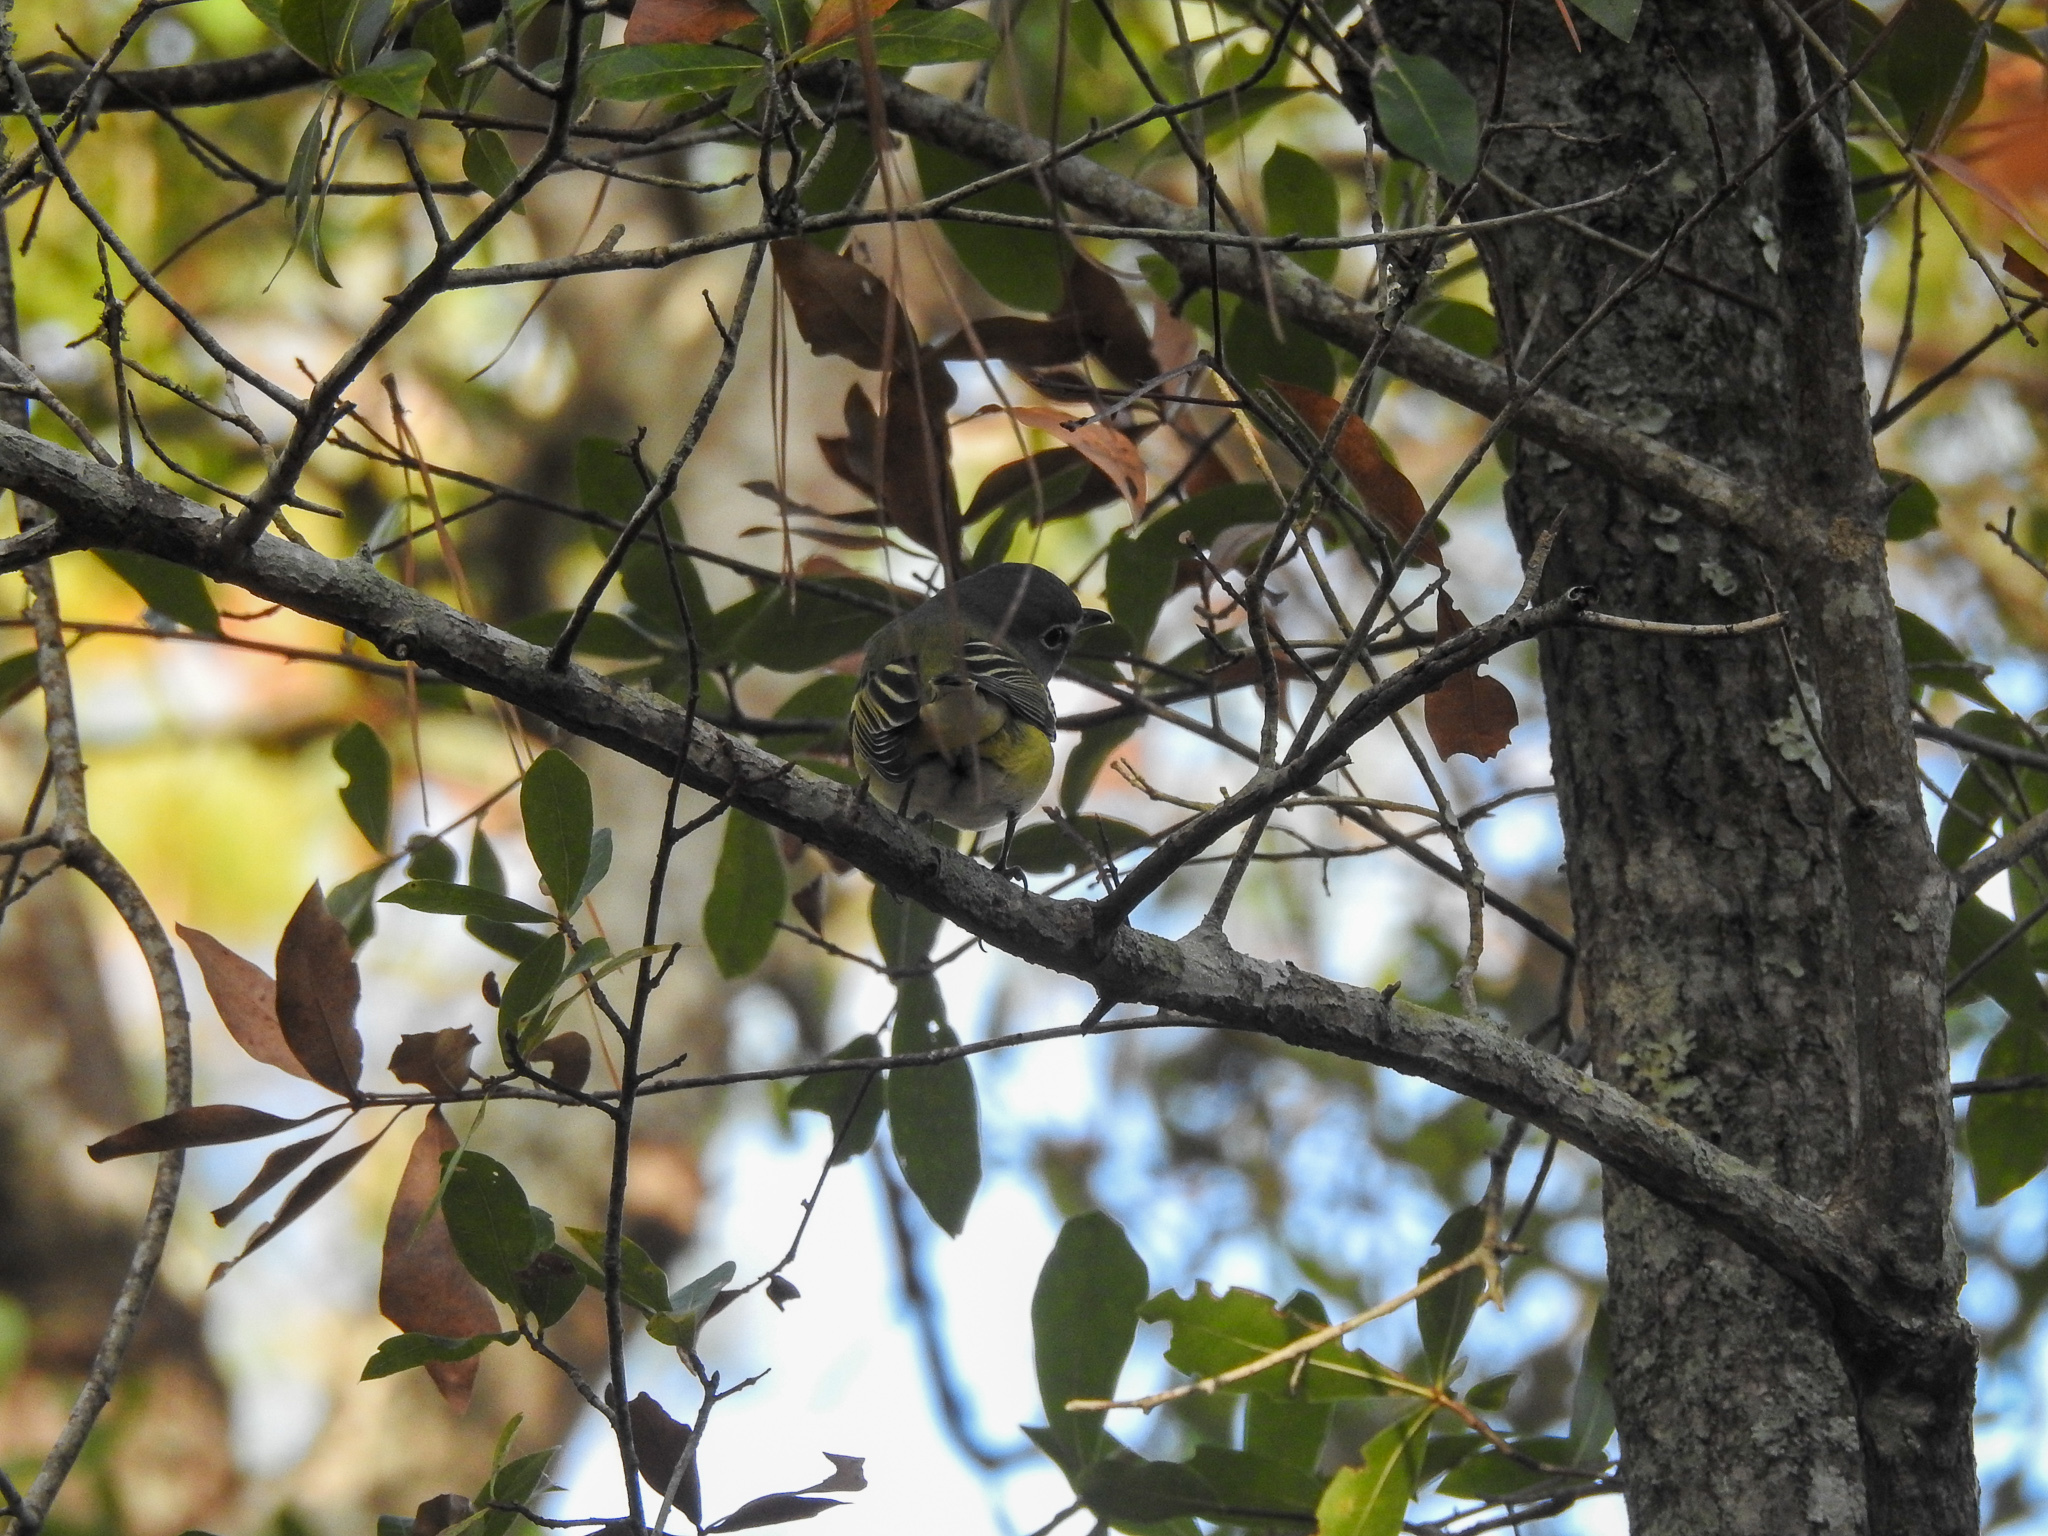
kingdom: Animalia
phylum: Chordata
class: Aves
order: Passeriformes
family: Vireonidae
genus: Vireo
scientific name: Vireo solitarius
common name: Blue-headed vireo
